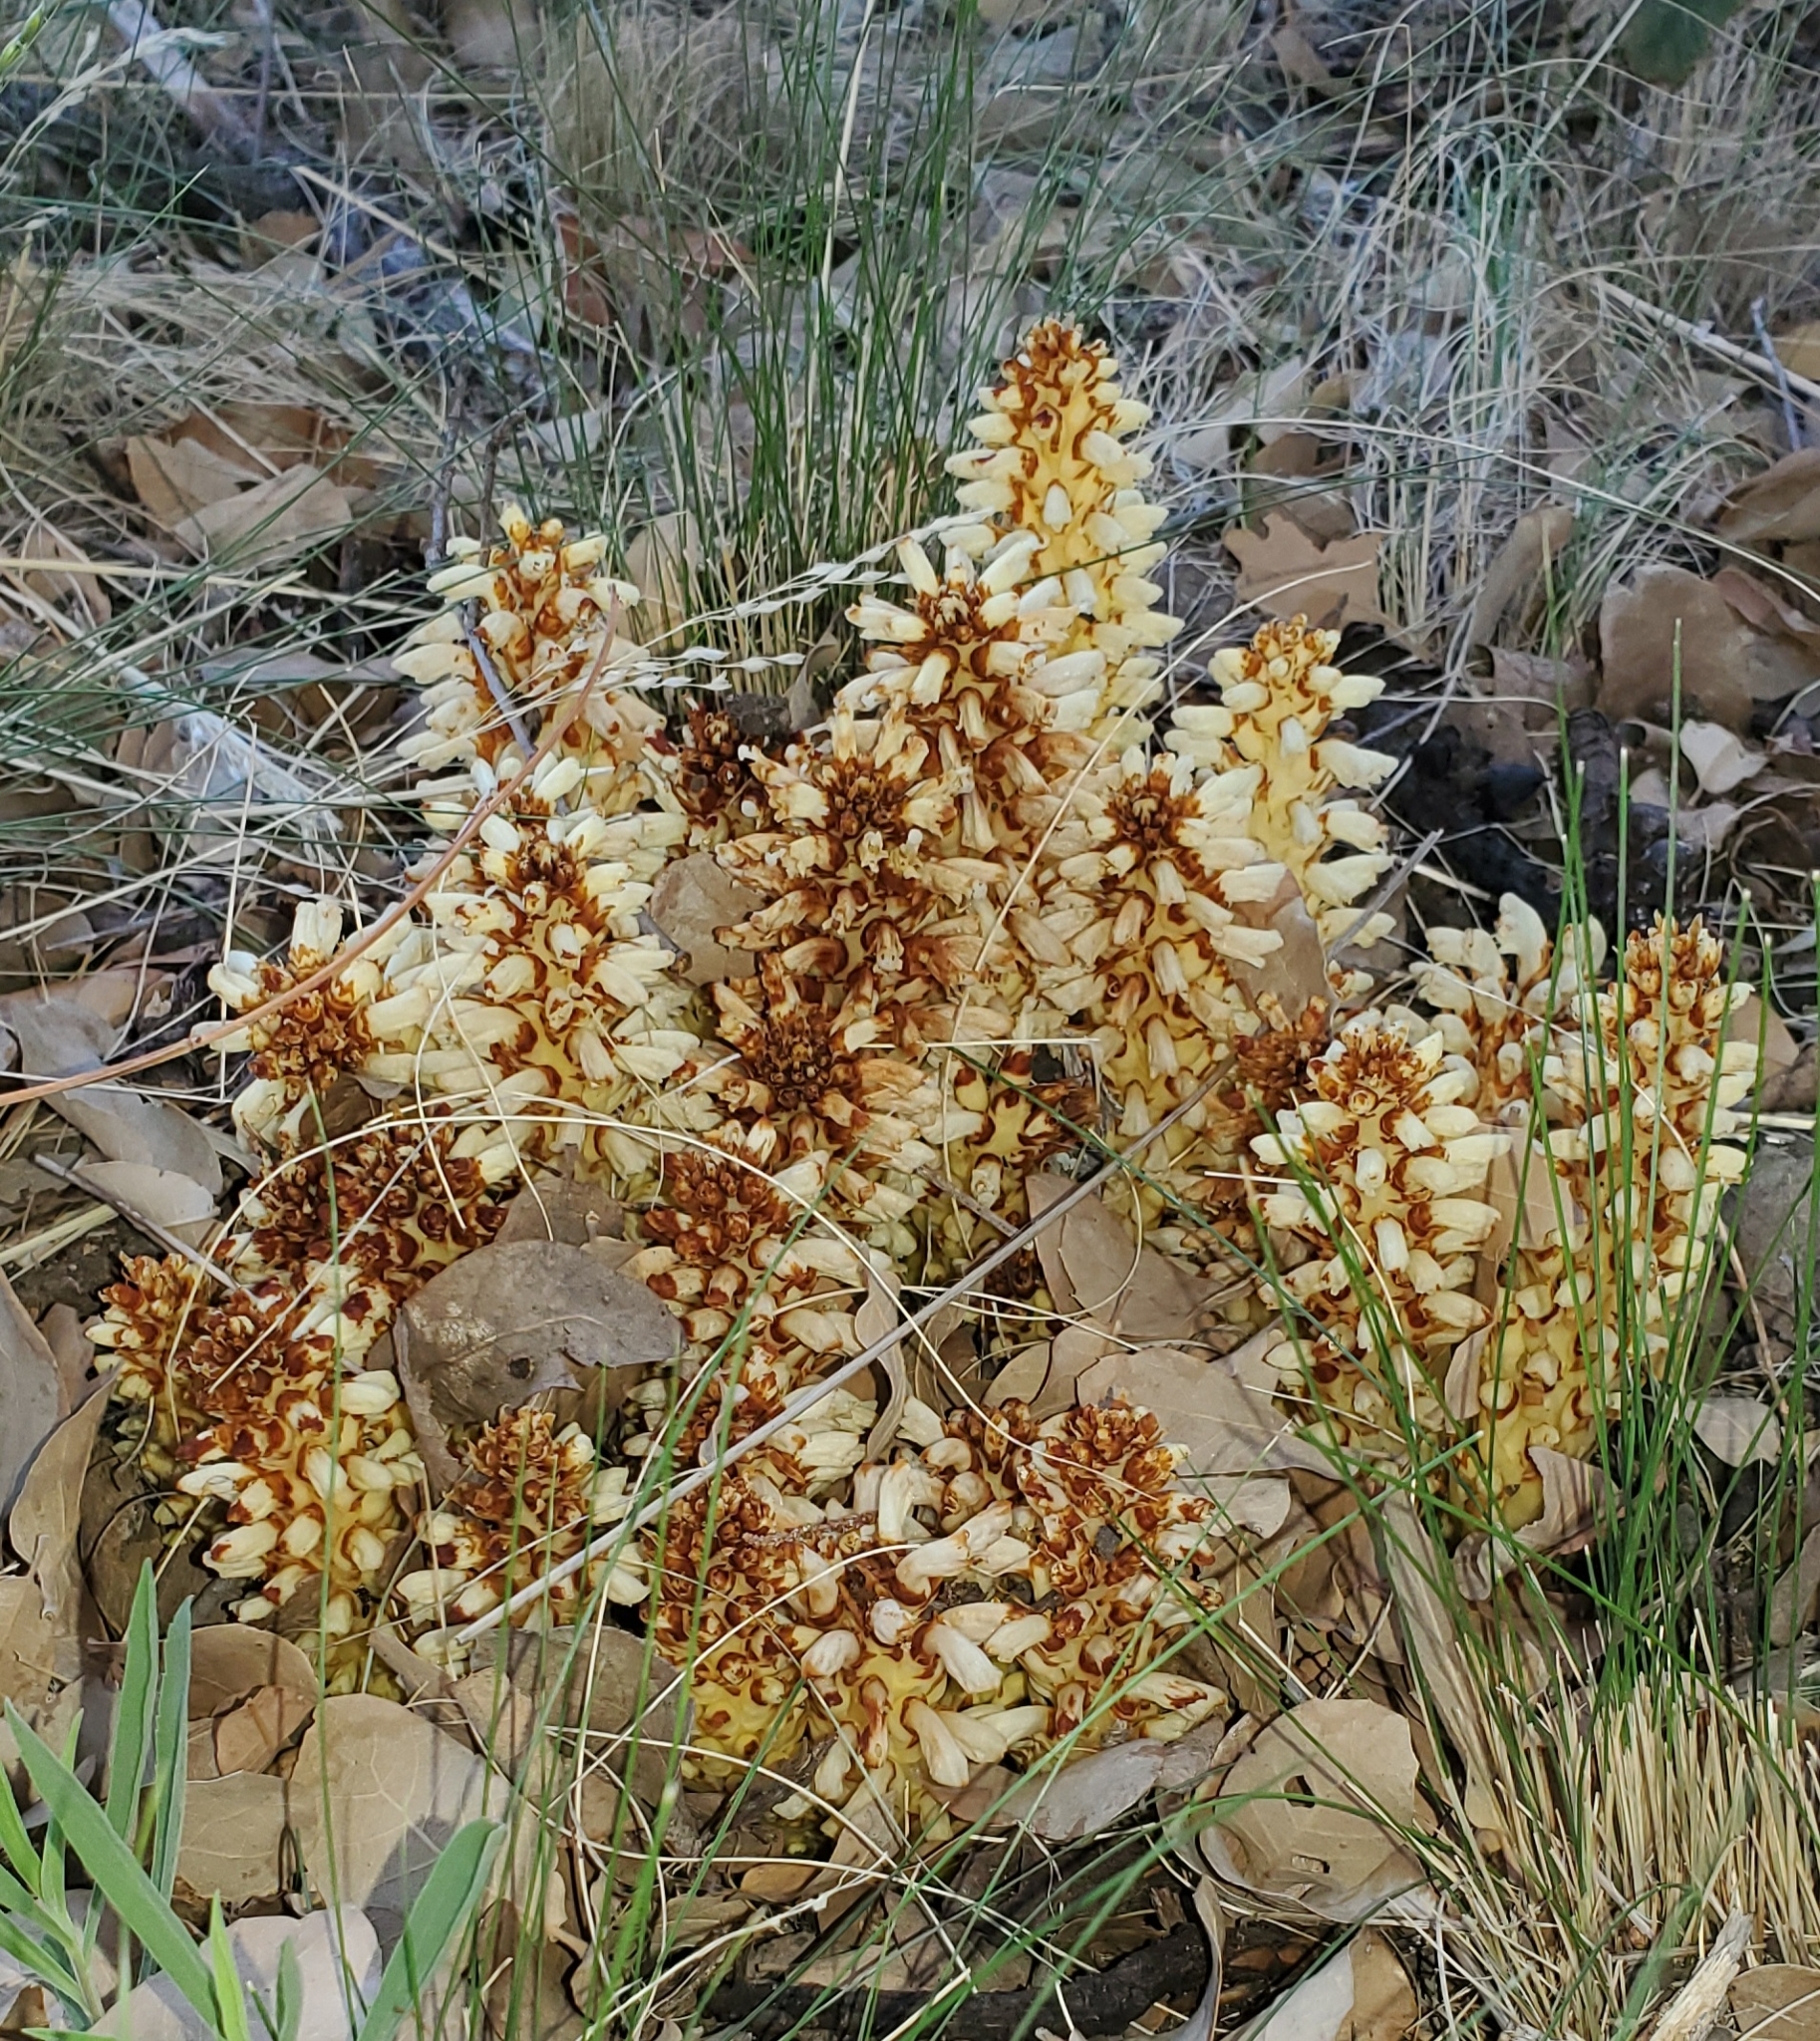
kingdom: Plantae
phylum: Tracheophyta
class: Magnoliopsida
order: Lamiales
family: Orobanchaceae
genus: Conopholis
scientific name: Conopholis alpina
